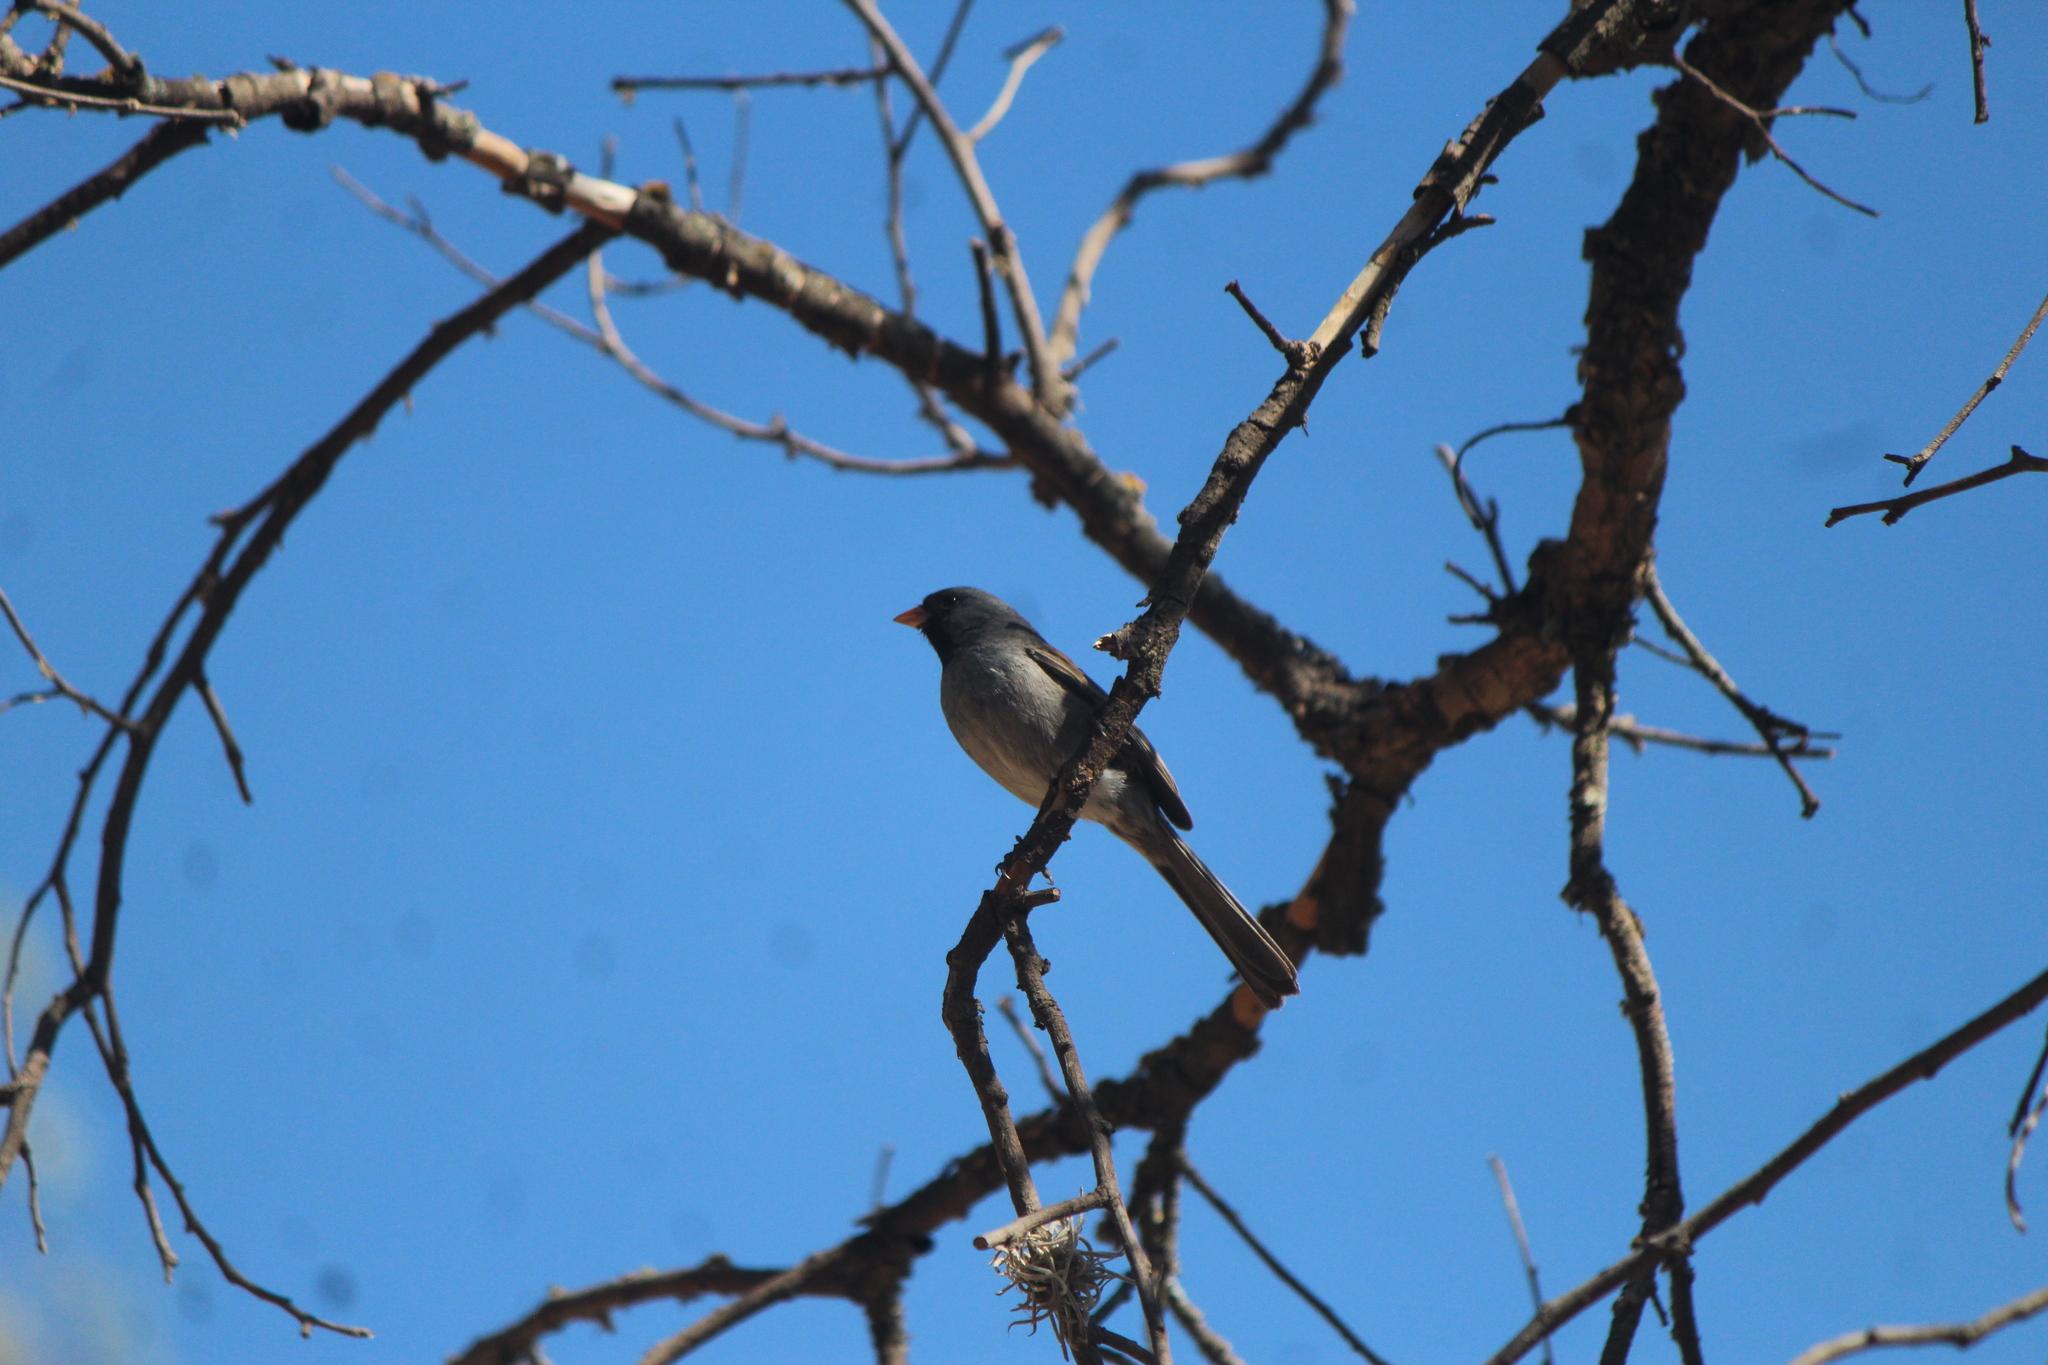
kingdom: Animalia
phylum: Chordata
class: Aves
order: Passeriformes
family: Passerellidae
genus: Spizella
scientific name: Spizella atrogularis
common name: Black-chinned sparrow
